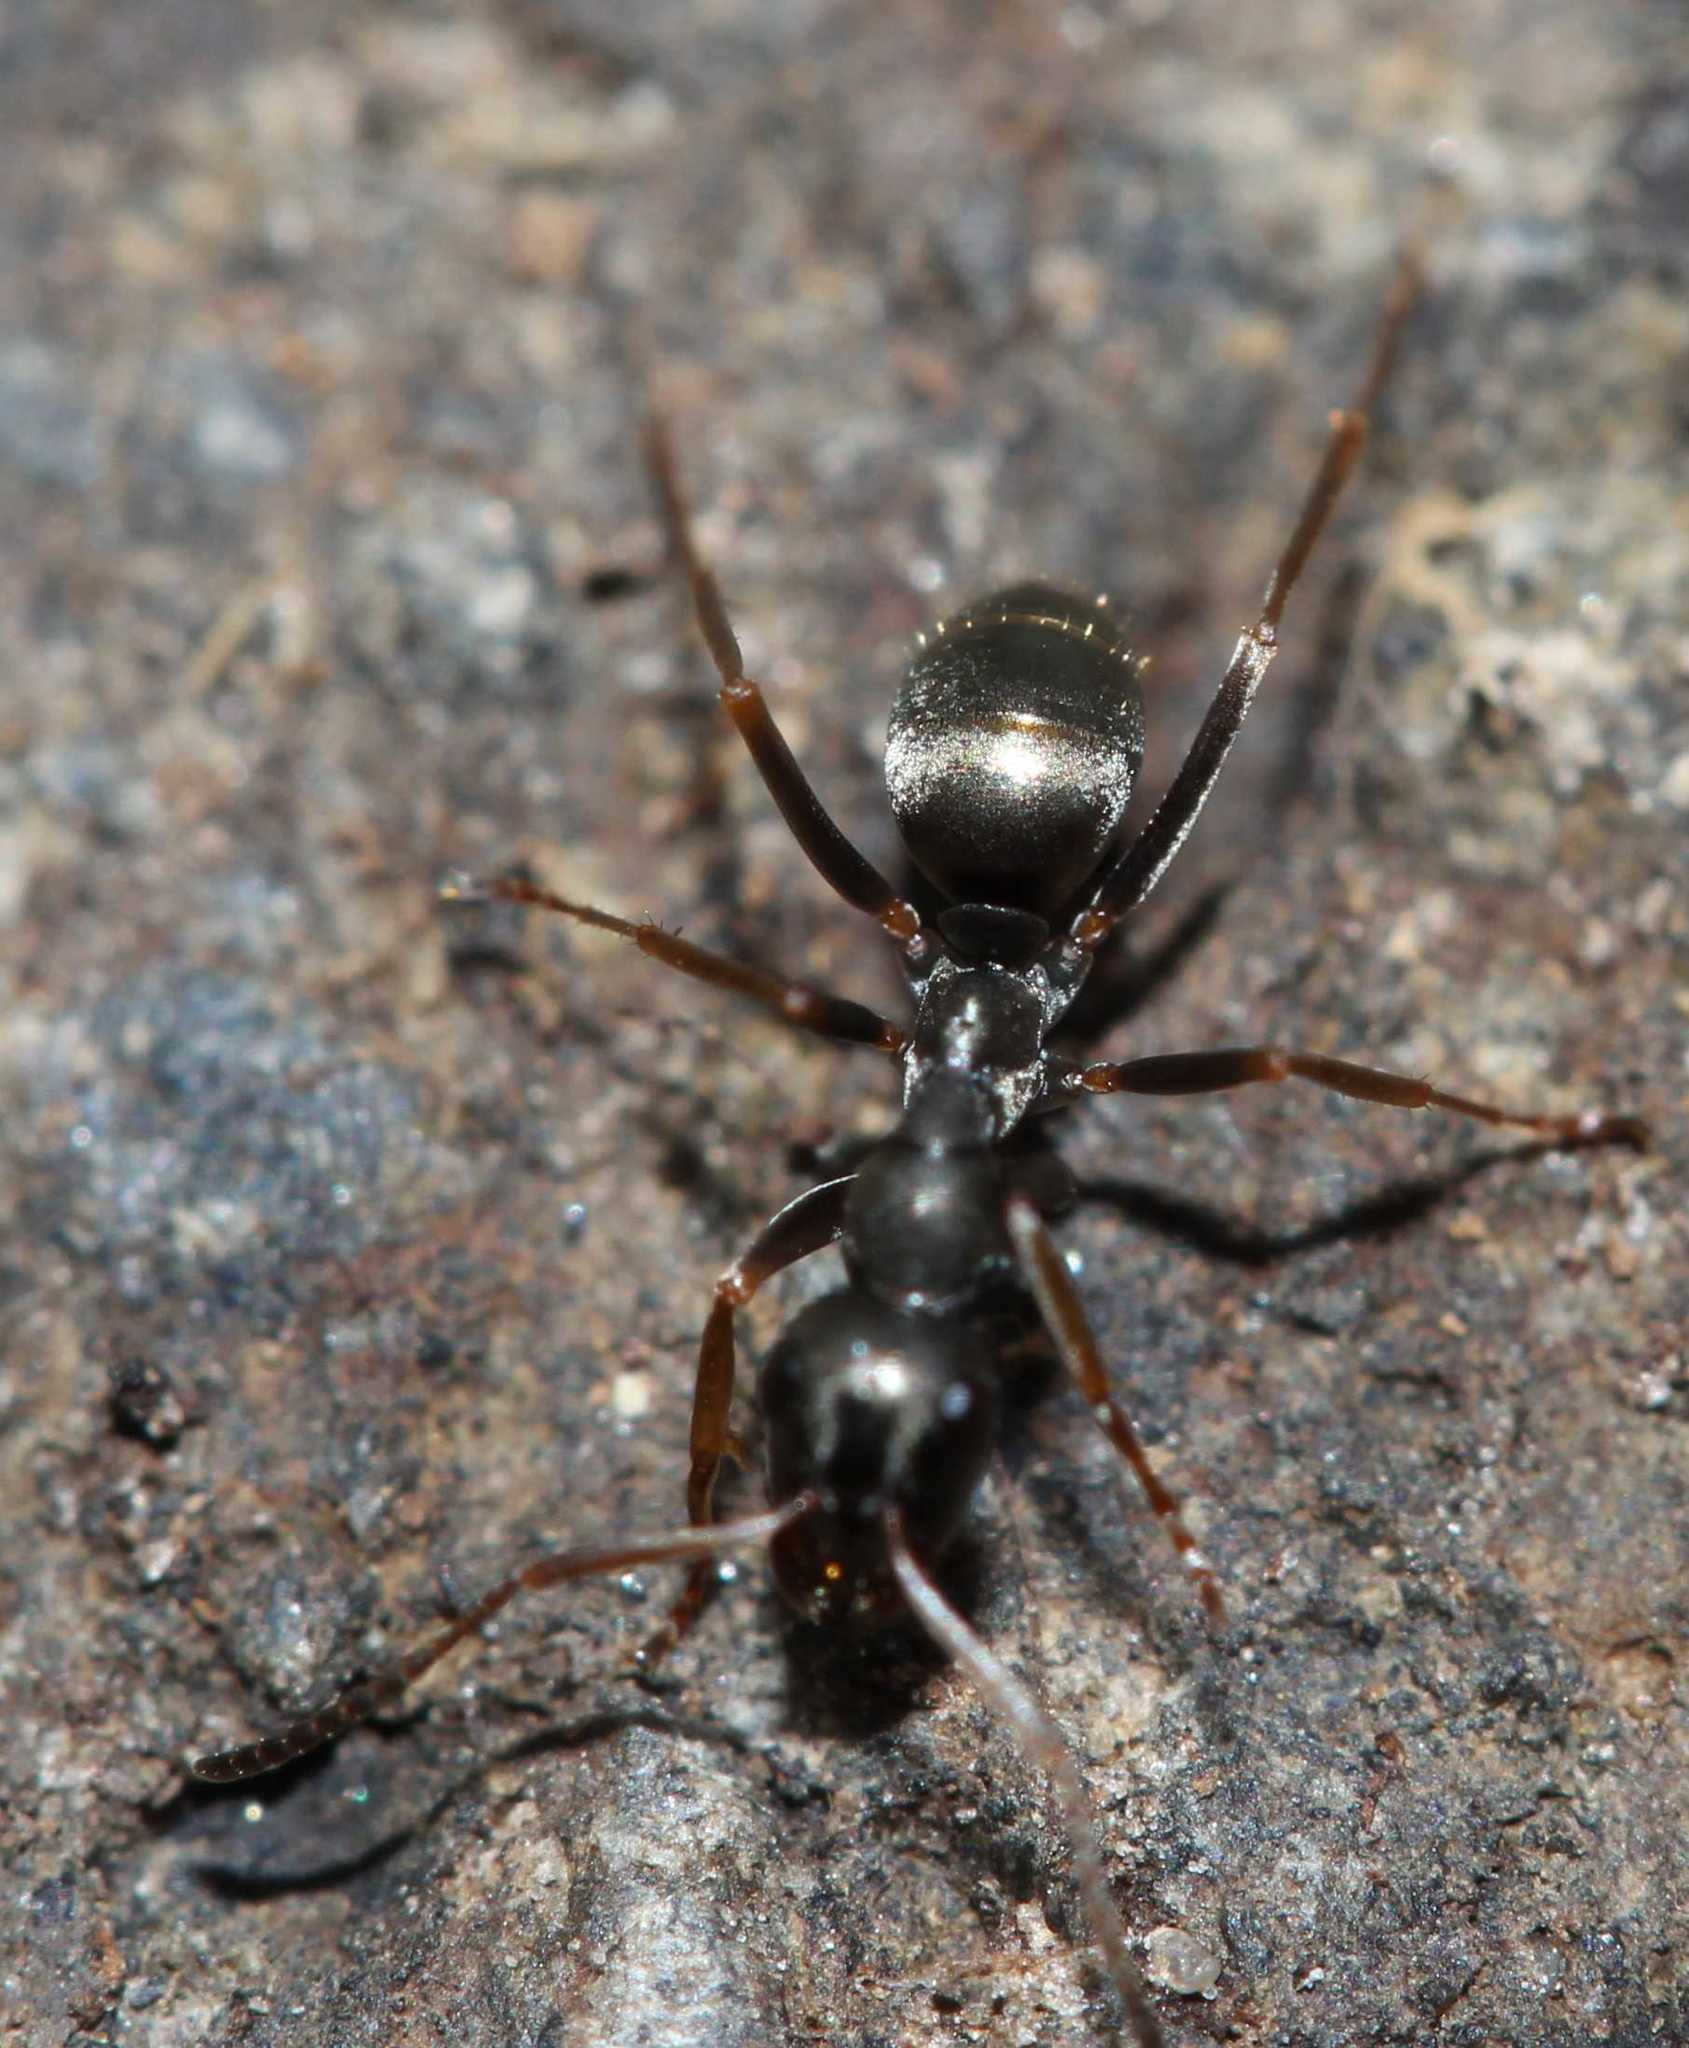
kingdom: Animalia
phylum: Arthropoda
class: Insecta
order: Hymenoptera
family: Formicidae
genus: Formica
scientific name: Formica
